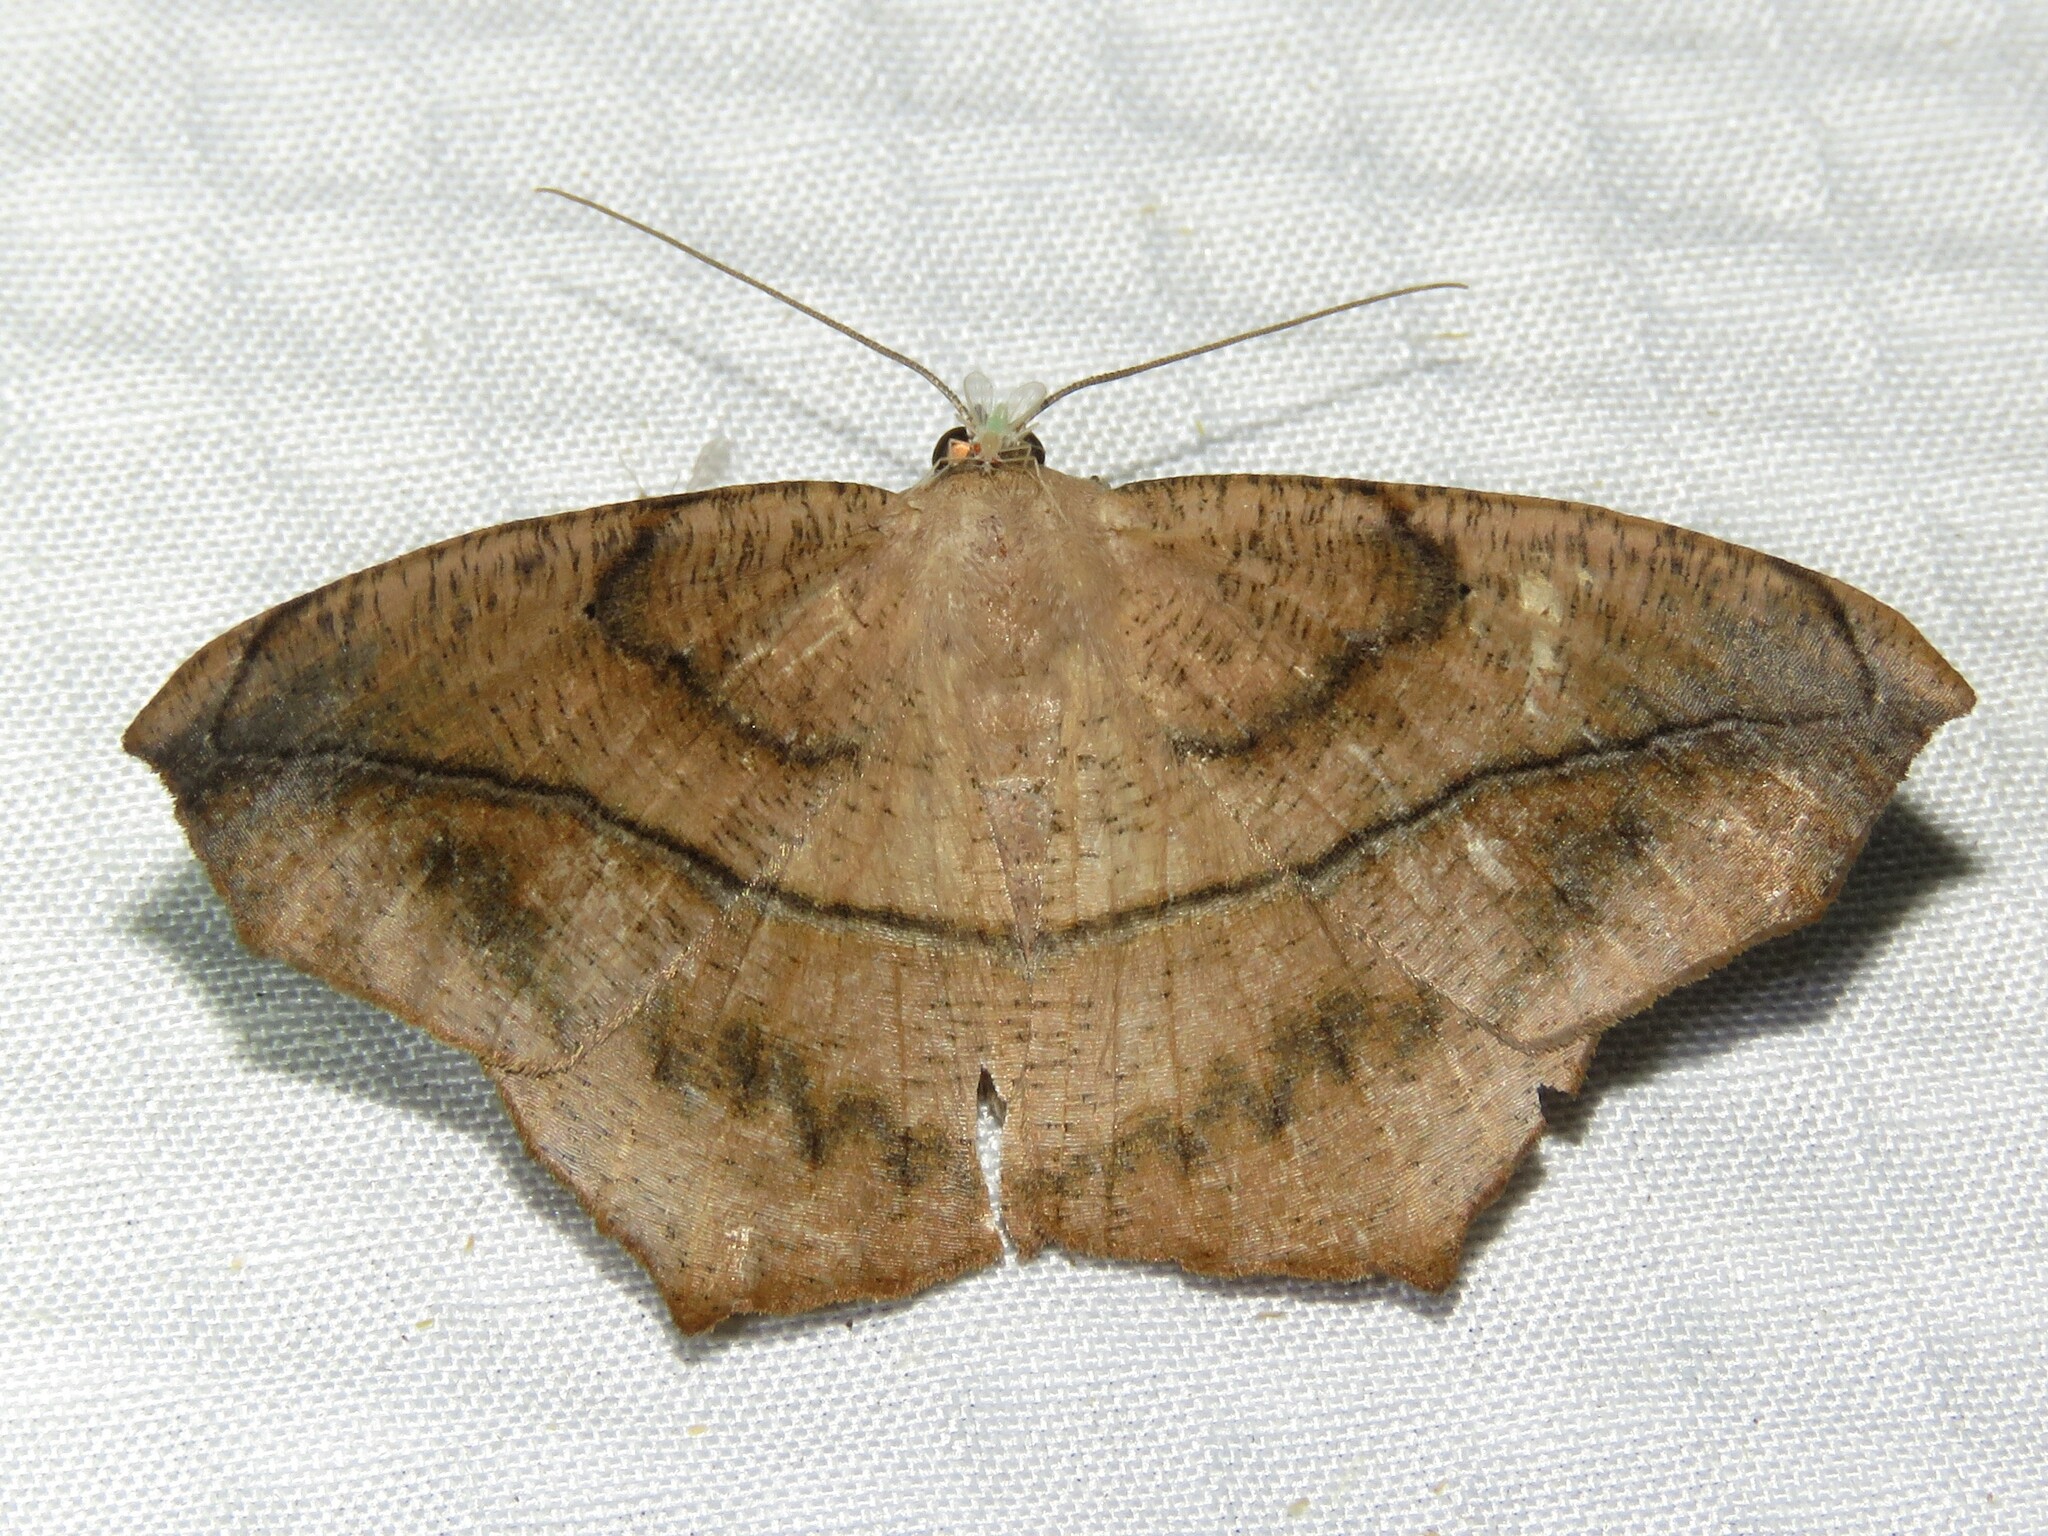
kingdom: Animalia
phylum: Arthropoda
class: Insecta
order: Lepidoptera
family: Geometridae
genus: Prochoerodes
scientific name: Prochoerodes lineola
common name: Large maple spanworm
